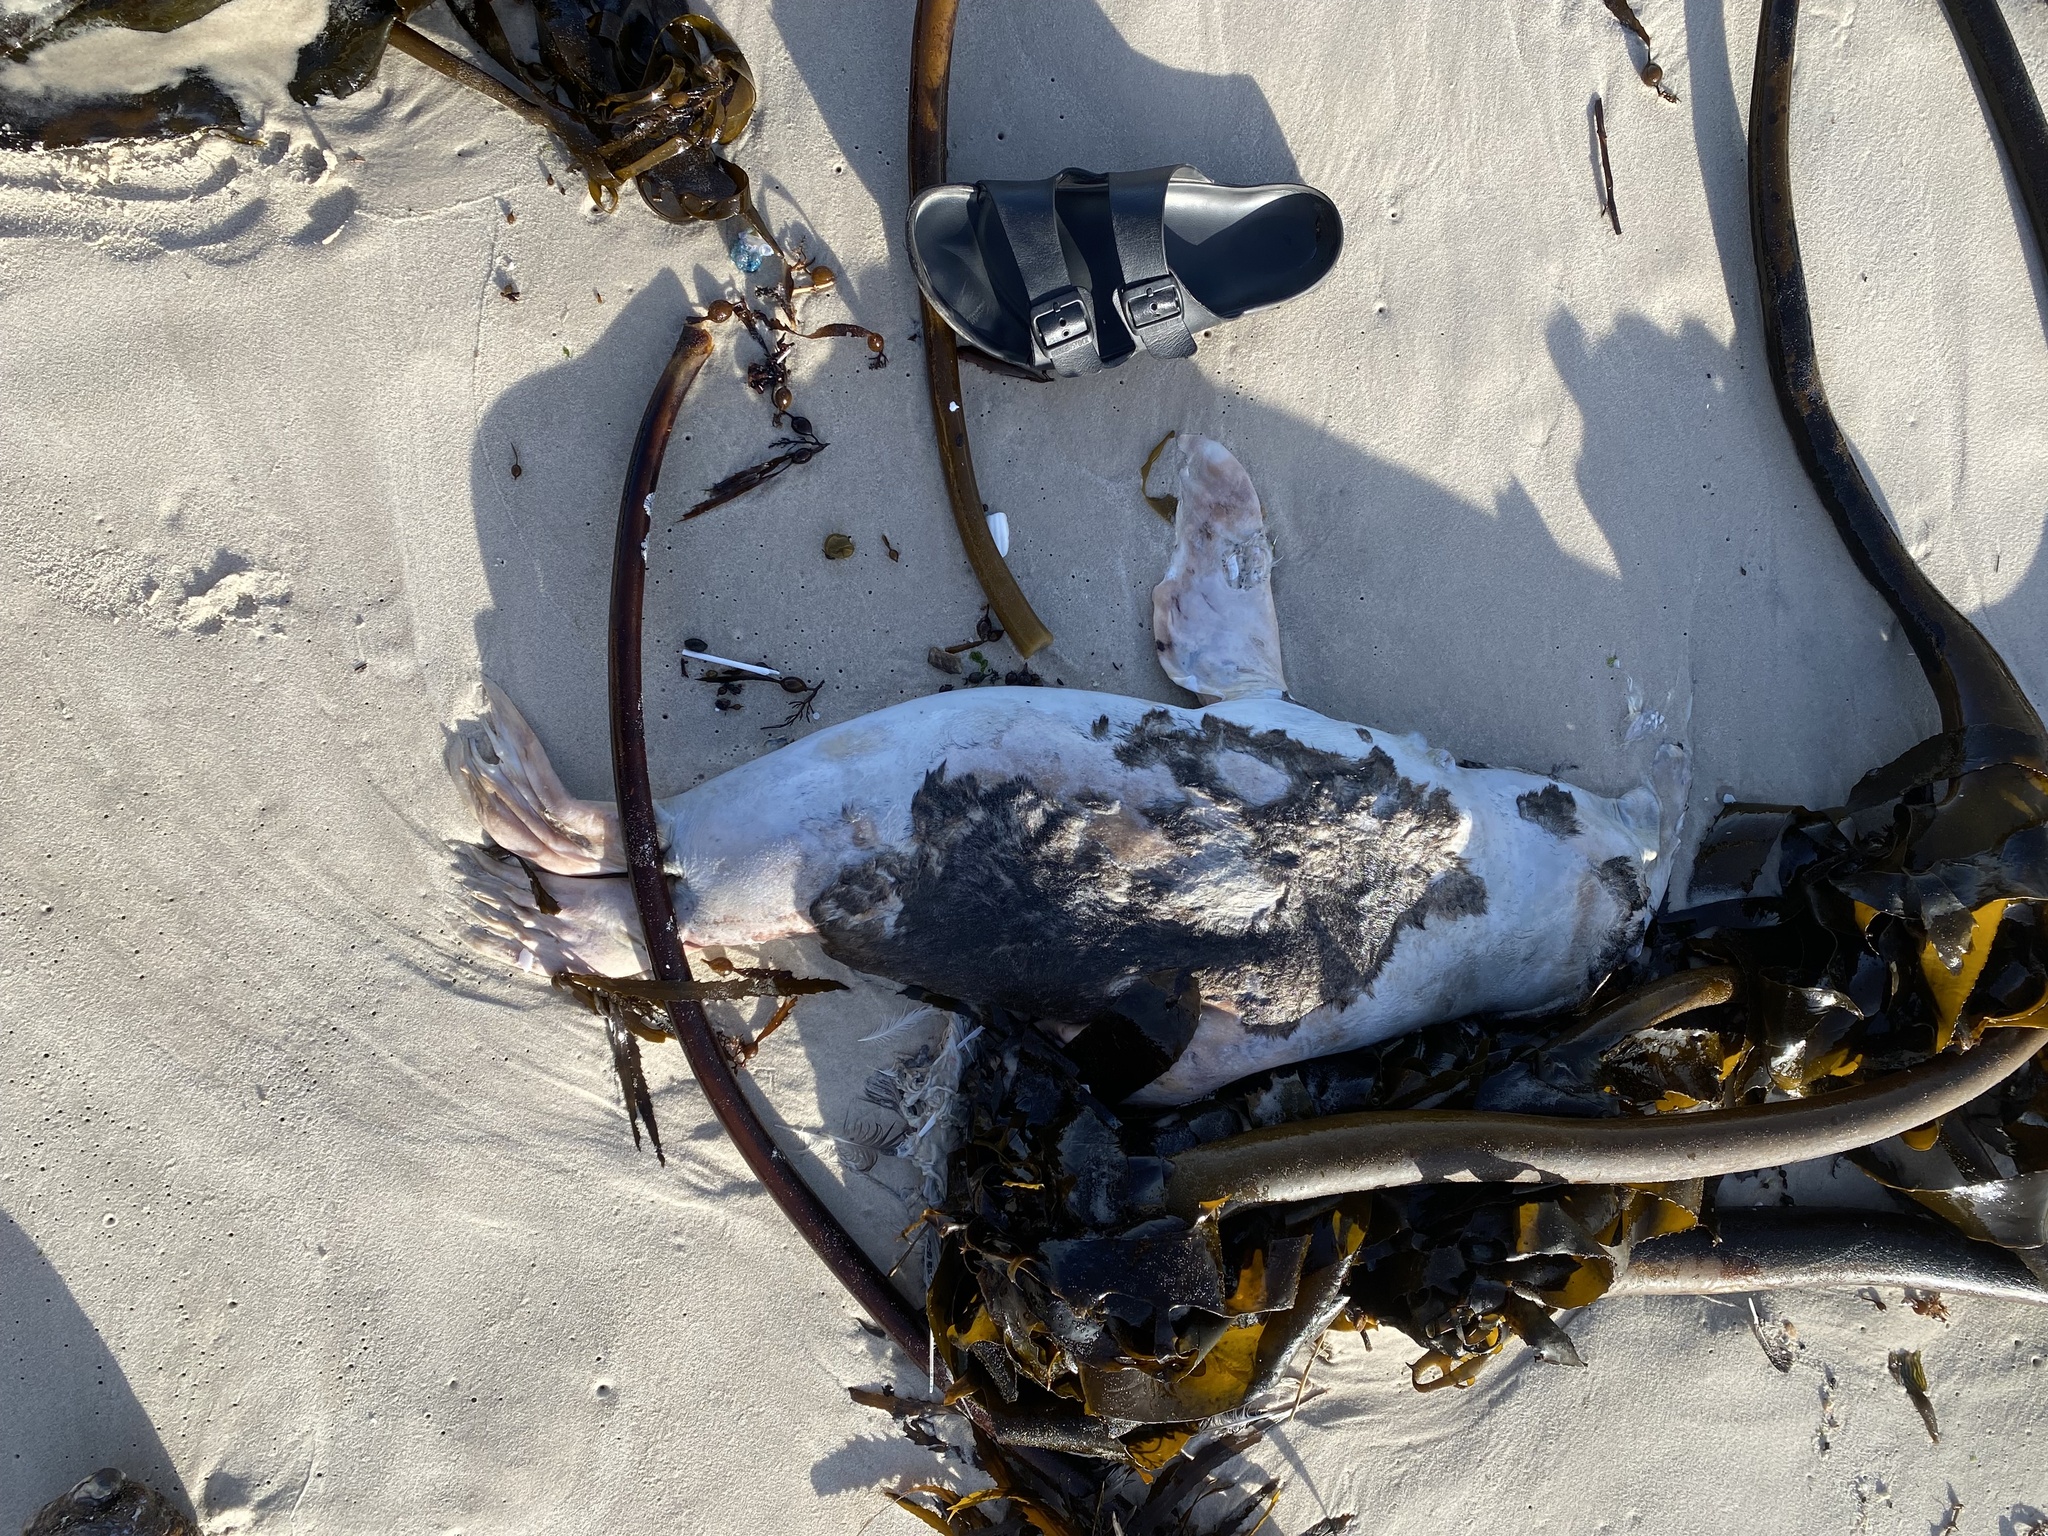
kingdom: Animalia
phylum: Chordata
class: Mammalia
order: Carnivora
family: Otariidae
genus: Arctocephalus
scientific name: Arctocephalus pusillus
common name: Brown fur seal
